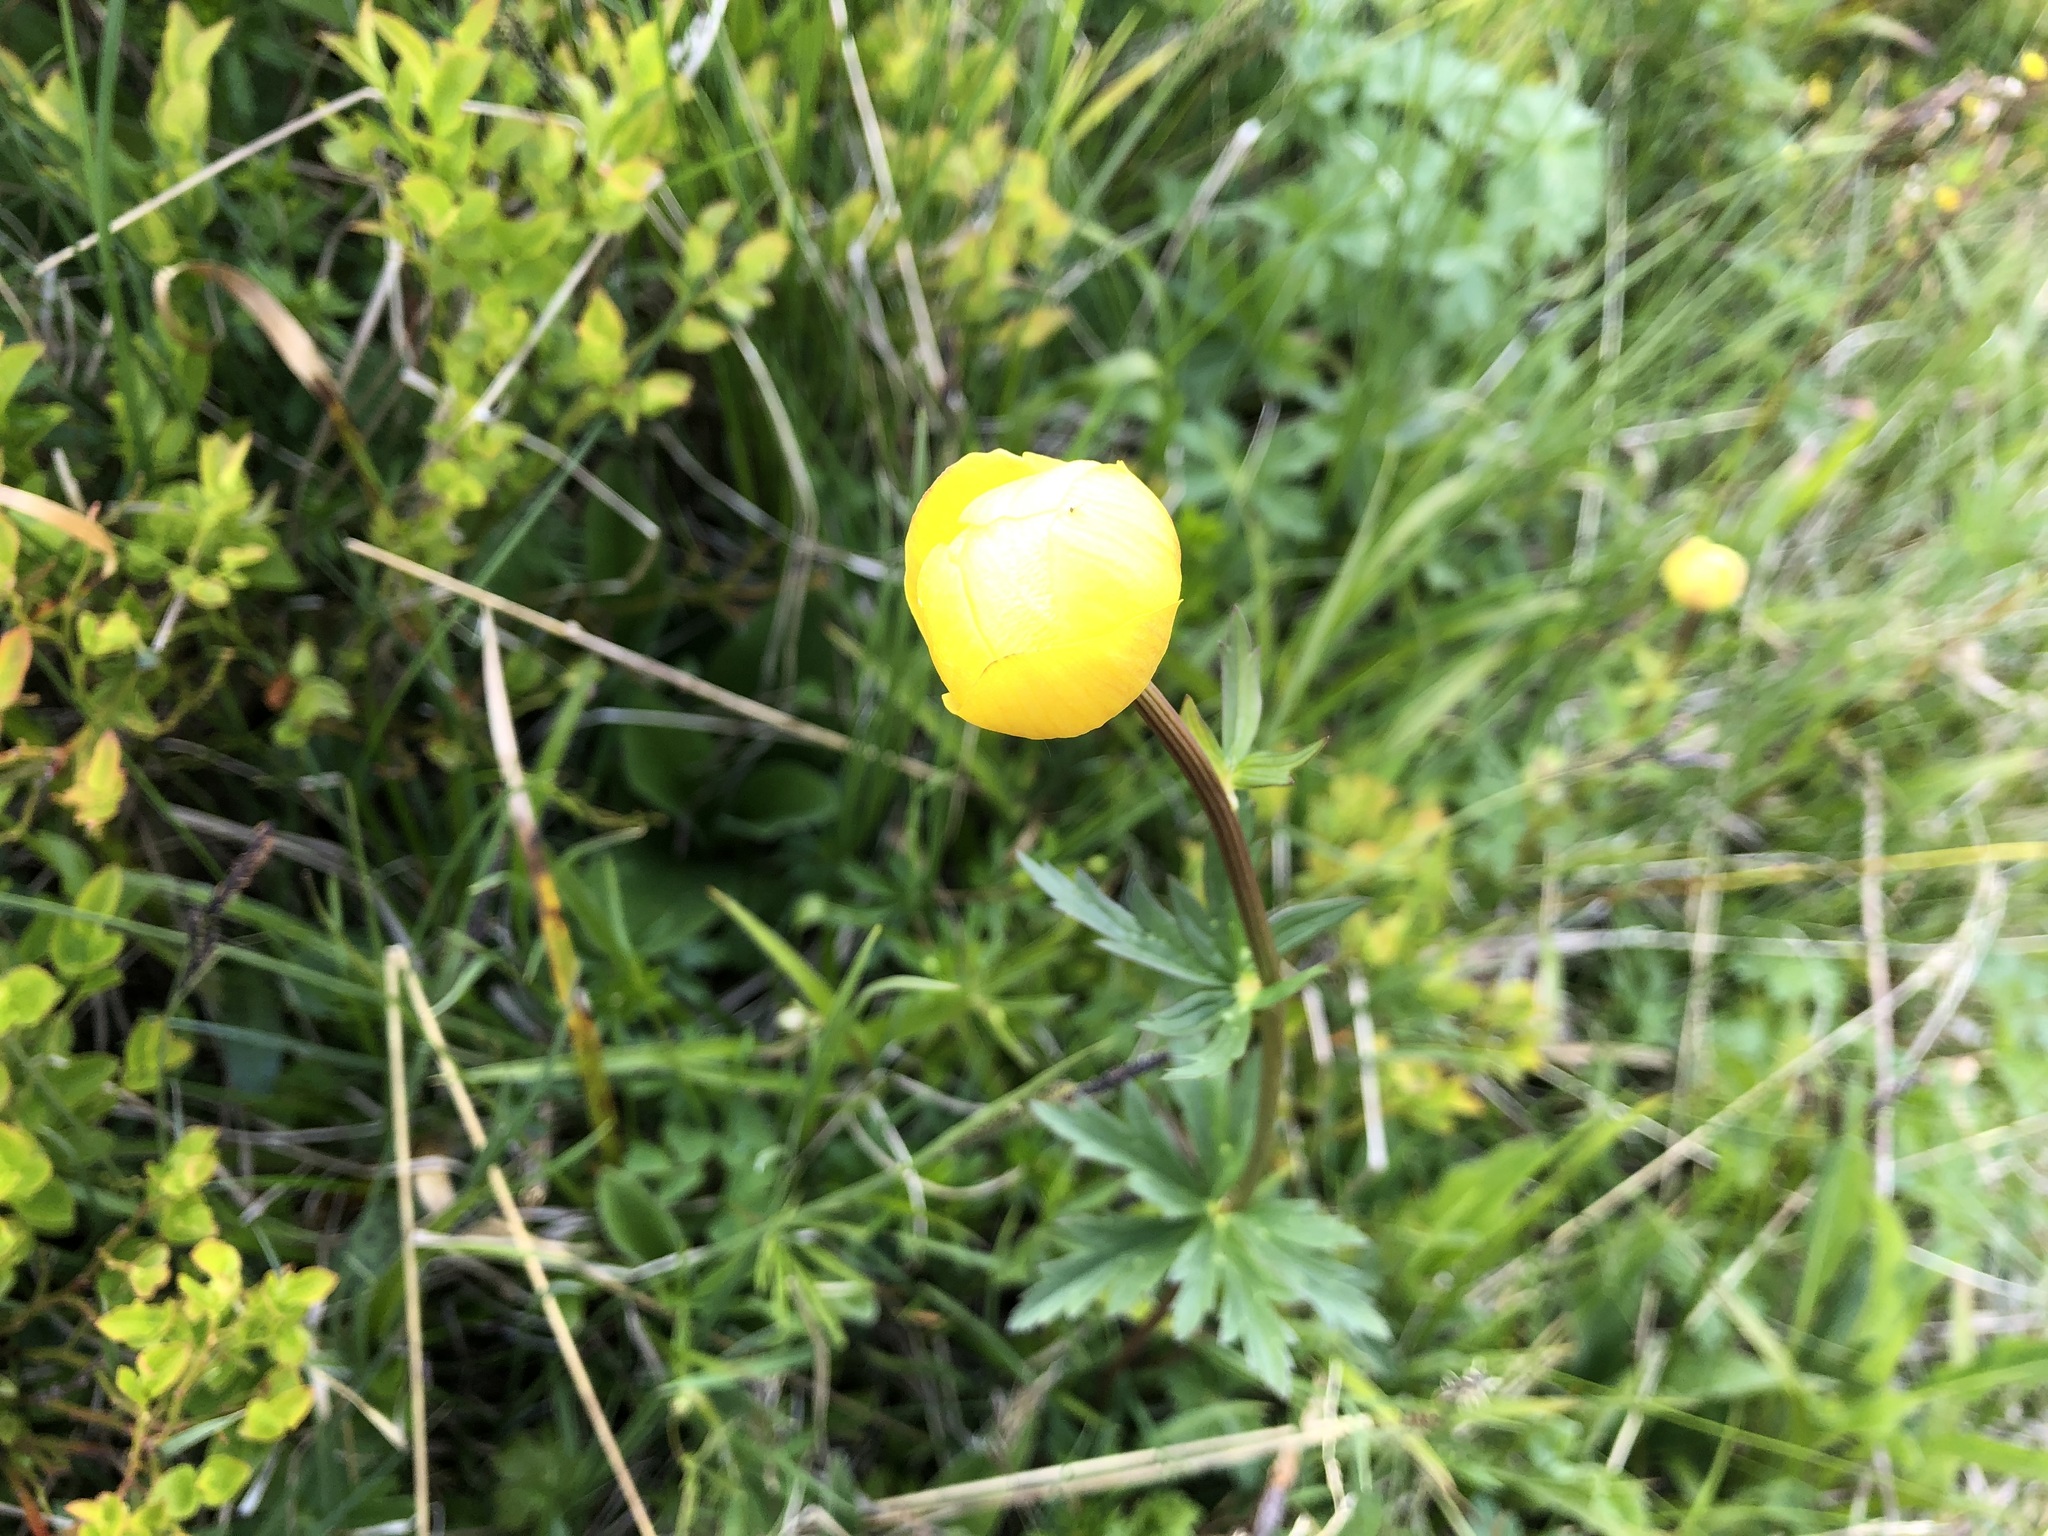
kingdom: Plantae
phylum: Tracheophyta
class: Magnoliopsida
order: Ranunculales
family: Ranunculaceae
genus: Trollius
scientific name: Trollius europaeus
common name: European globeflower
